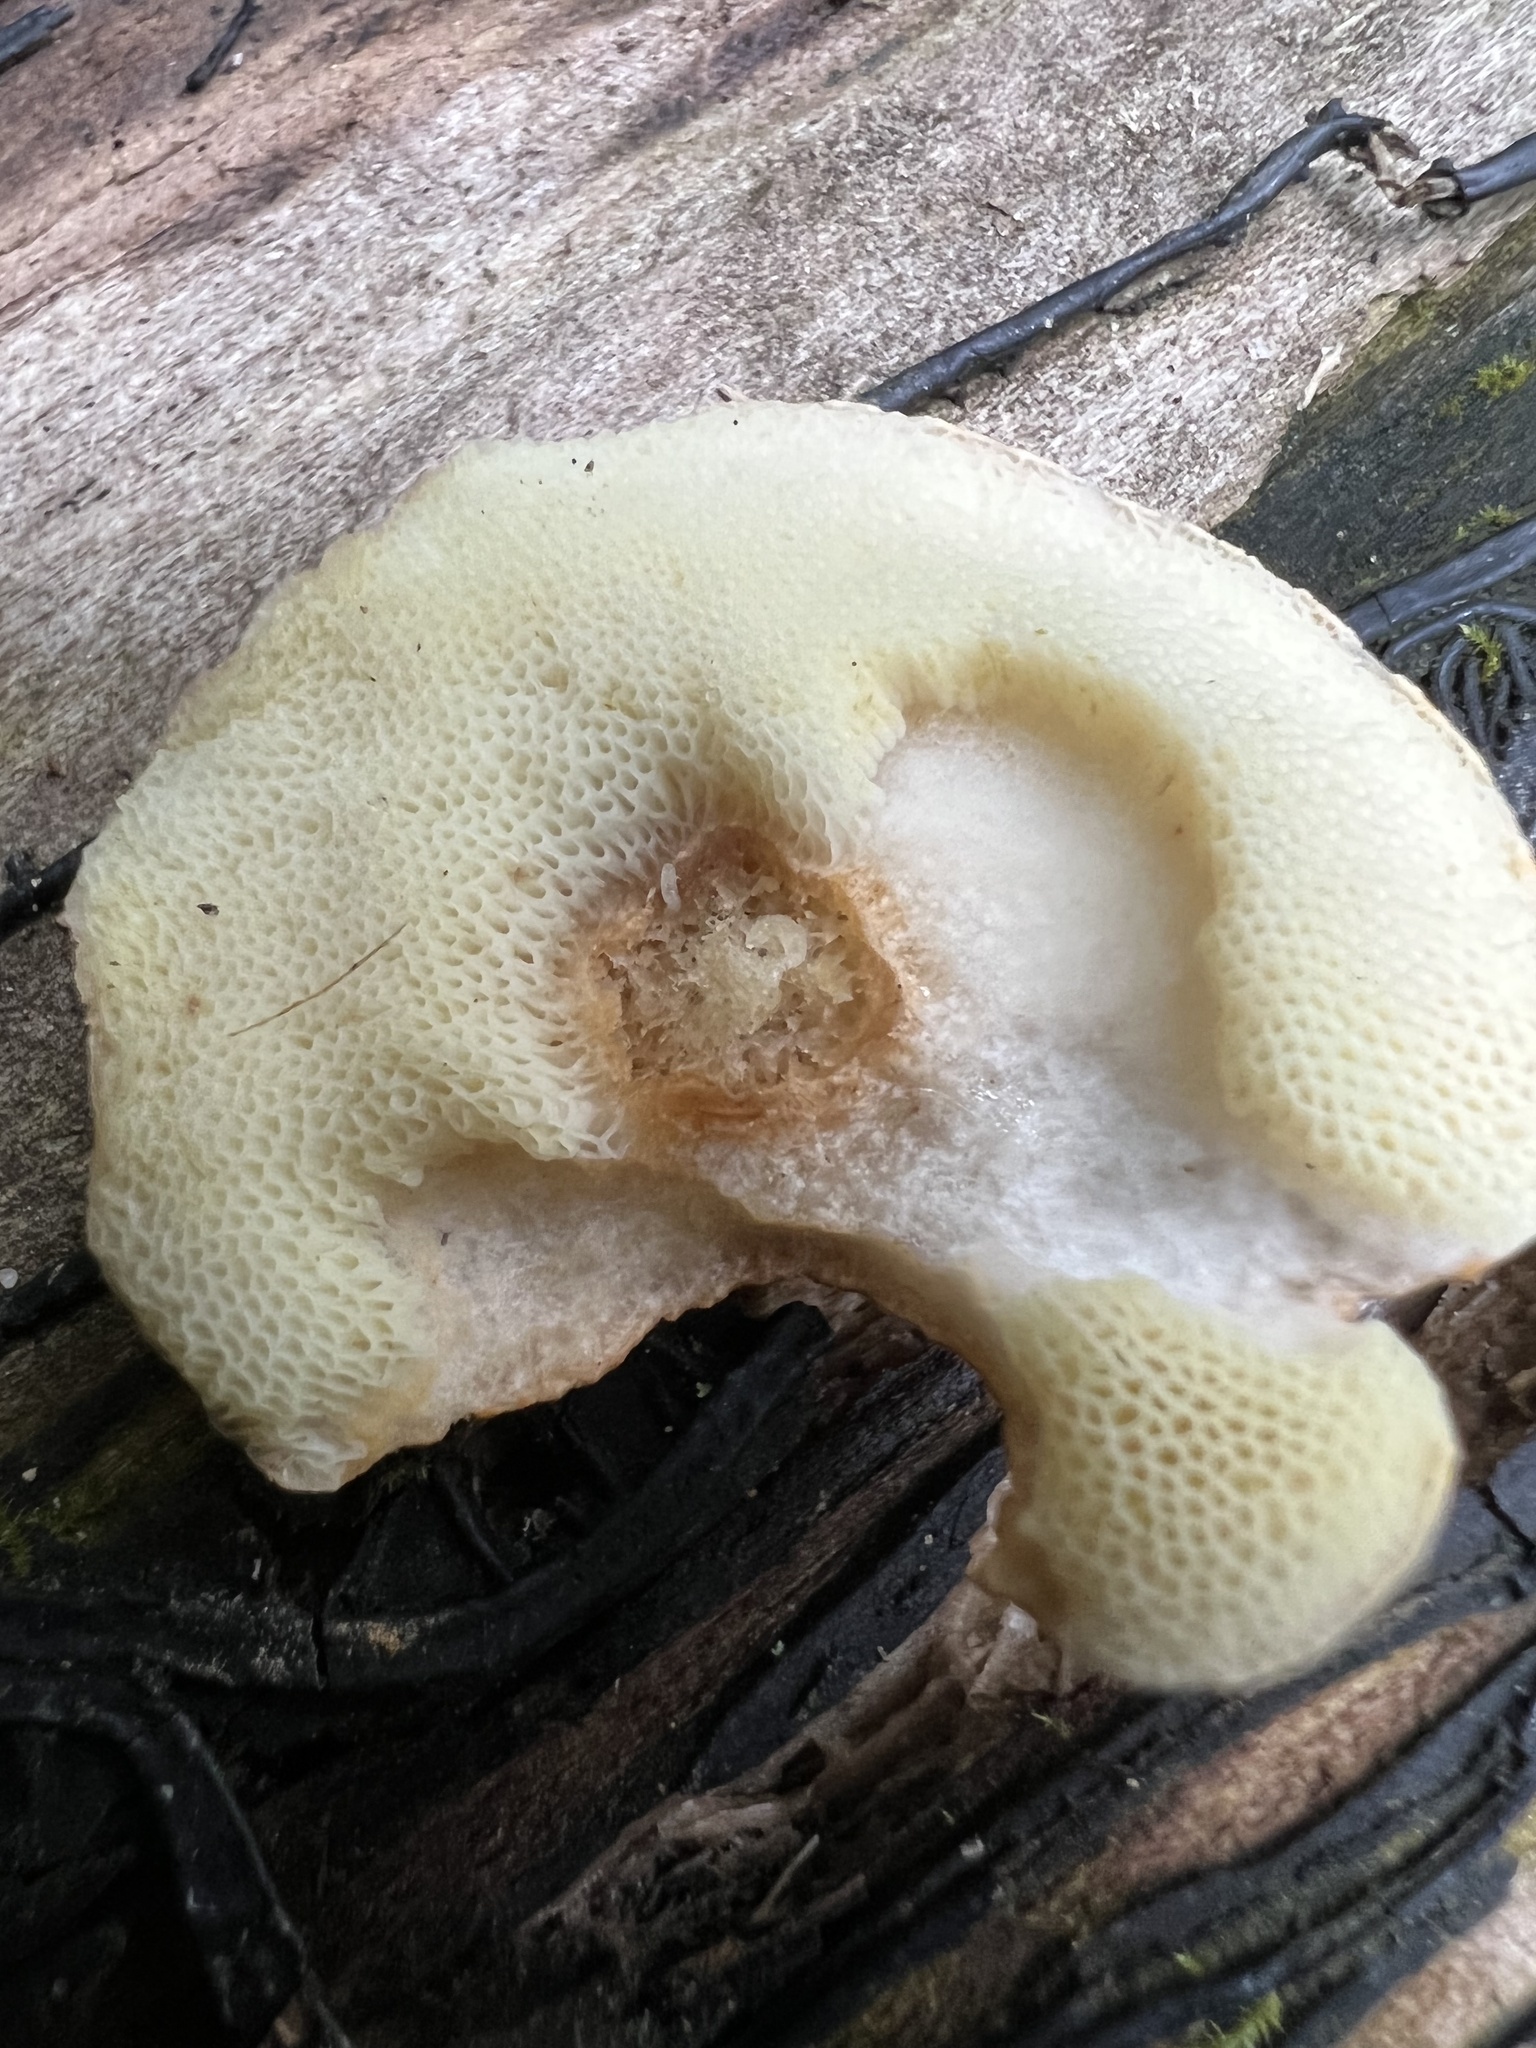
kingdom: Fungi
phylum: Basidiomycota
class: Agaricomycetes
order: Boletales
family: Gyroporaceae
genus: Gyroporus
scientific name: Gyroporus smithii
